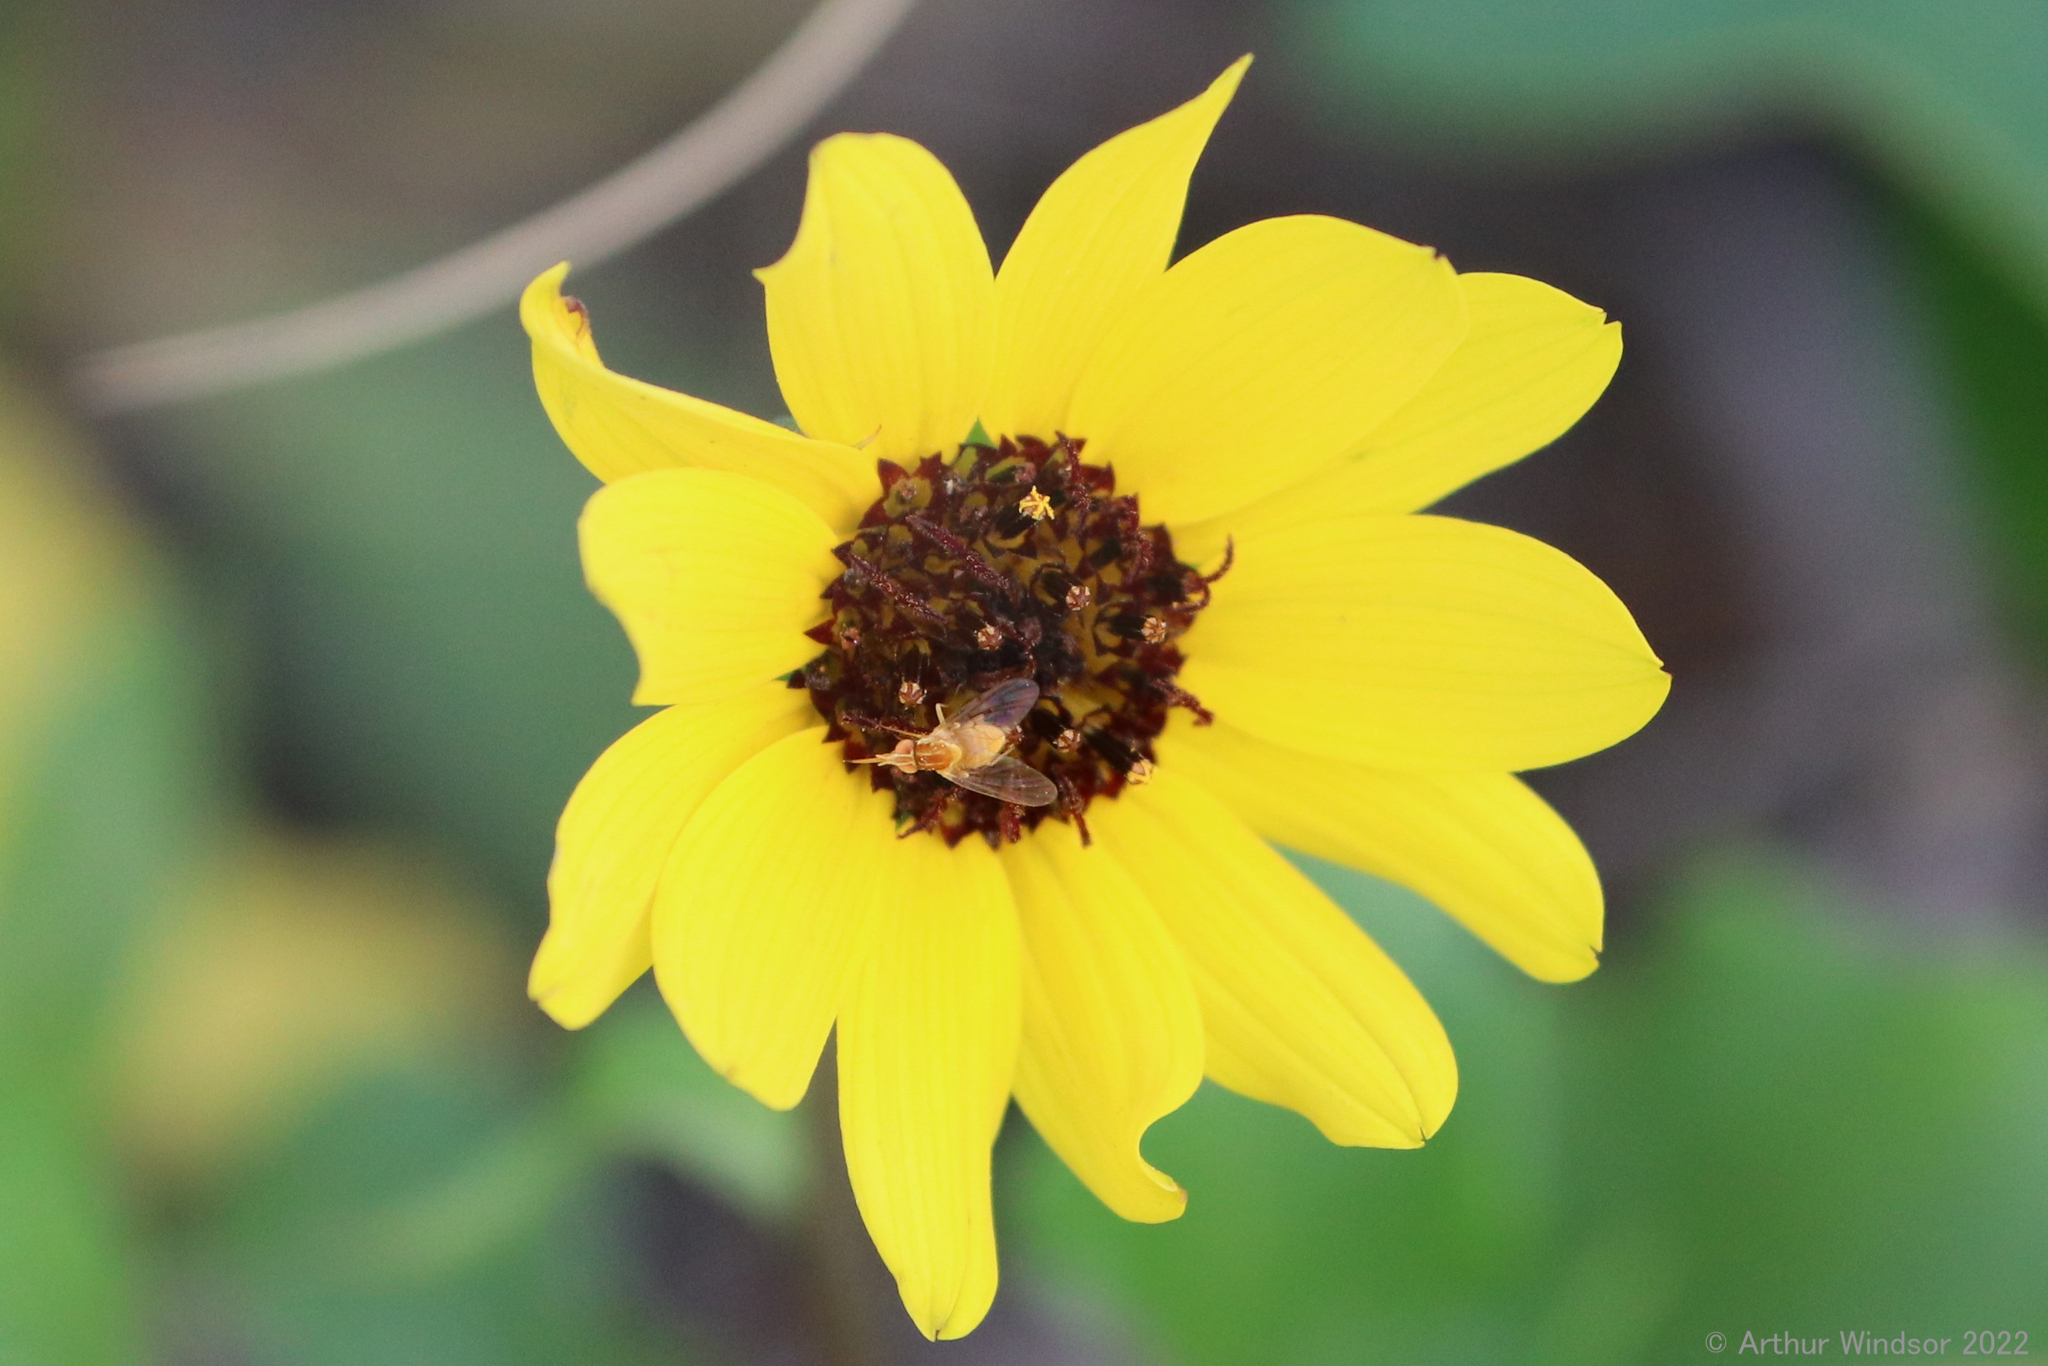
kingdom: Animalia
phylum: Arthropoda
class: Insecta
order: Diptera
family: Bombyliidae
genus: Poecilognathus
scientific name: Poecilognathus sulphureus
